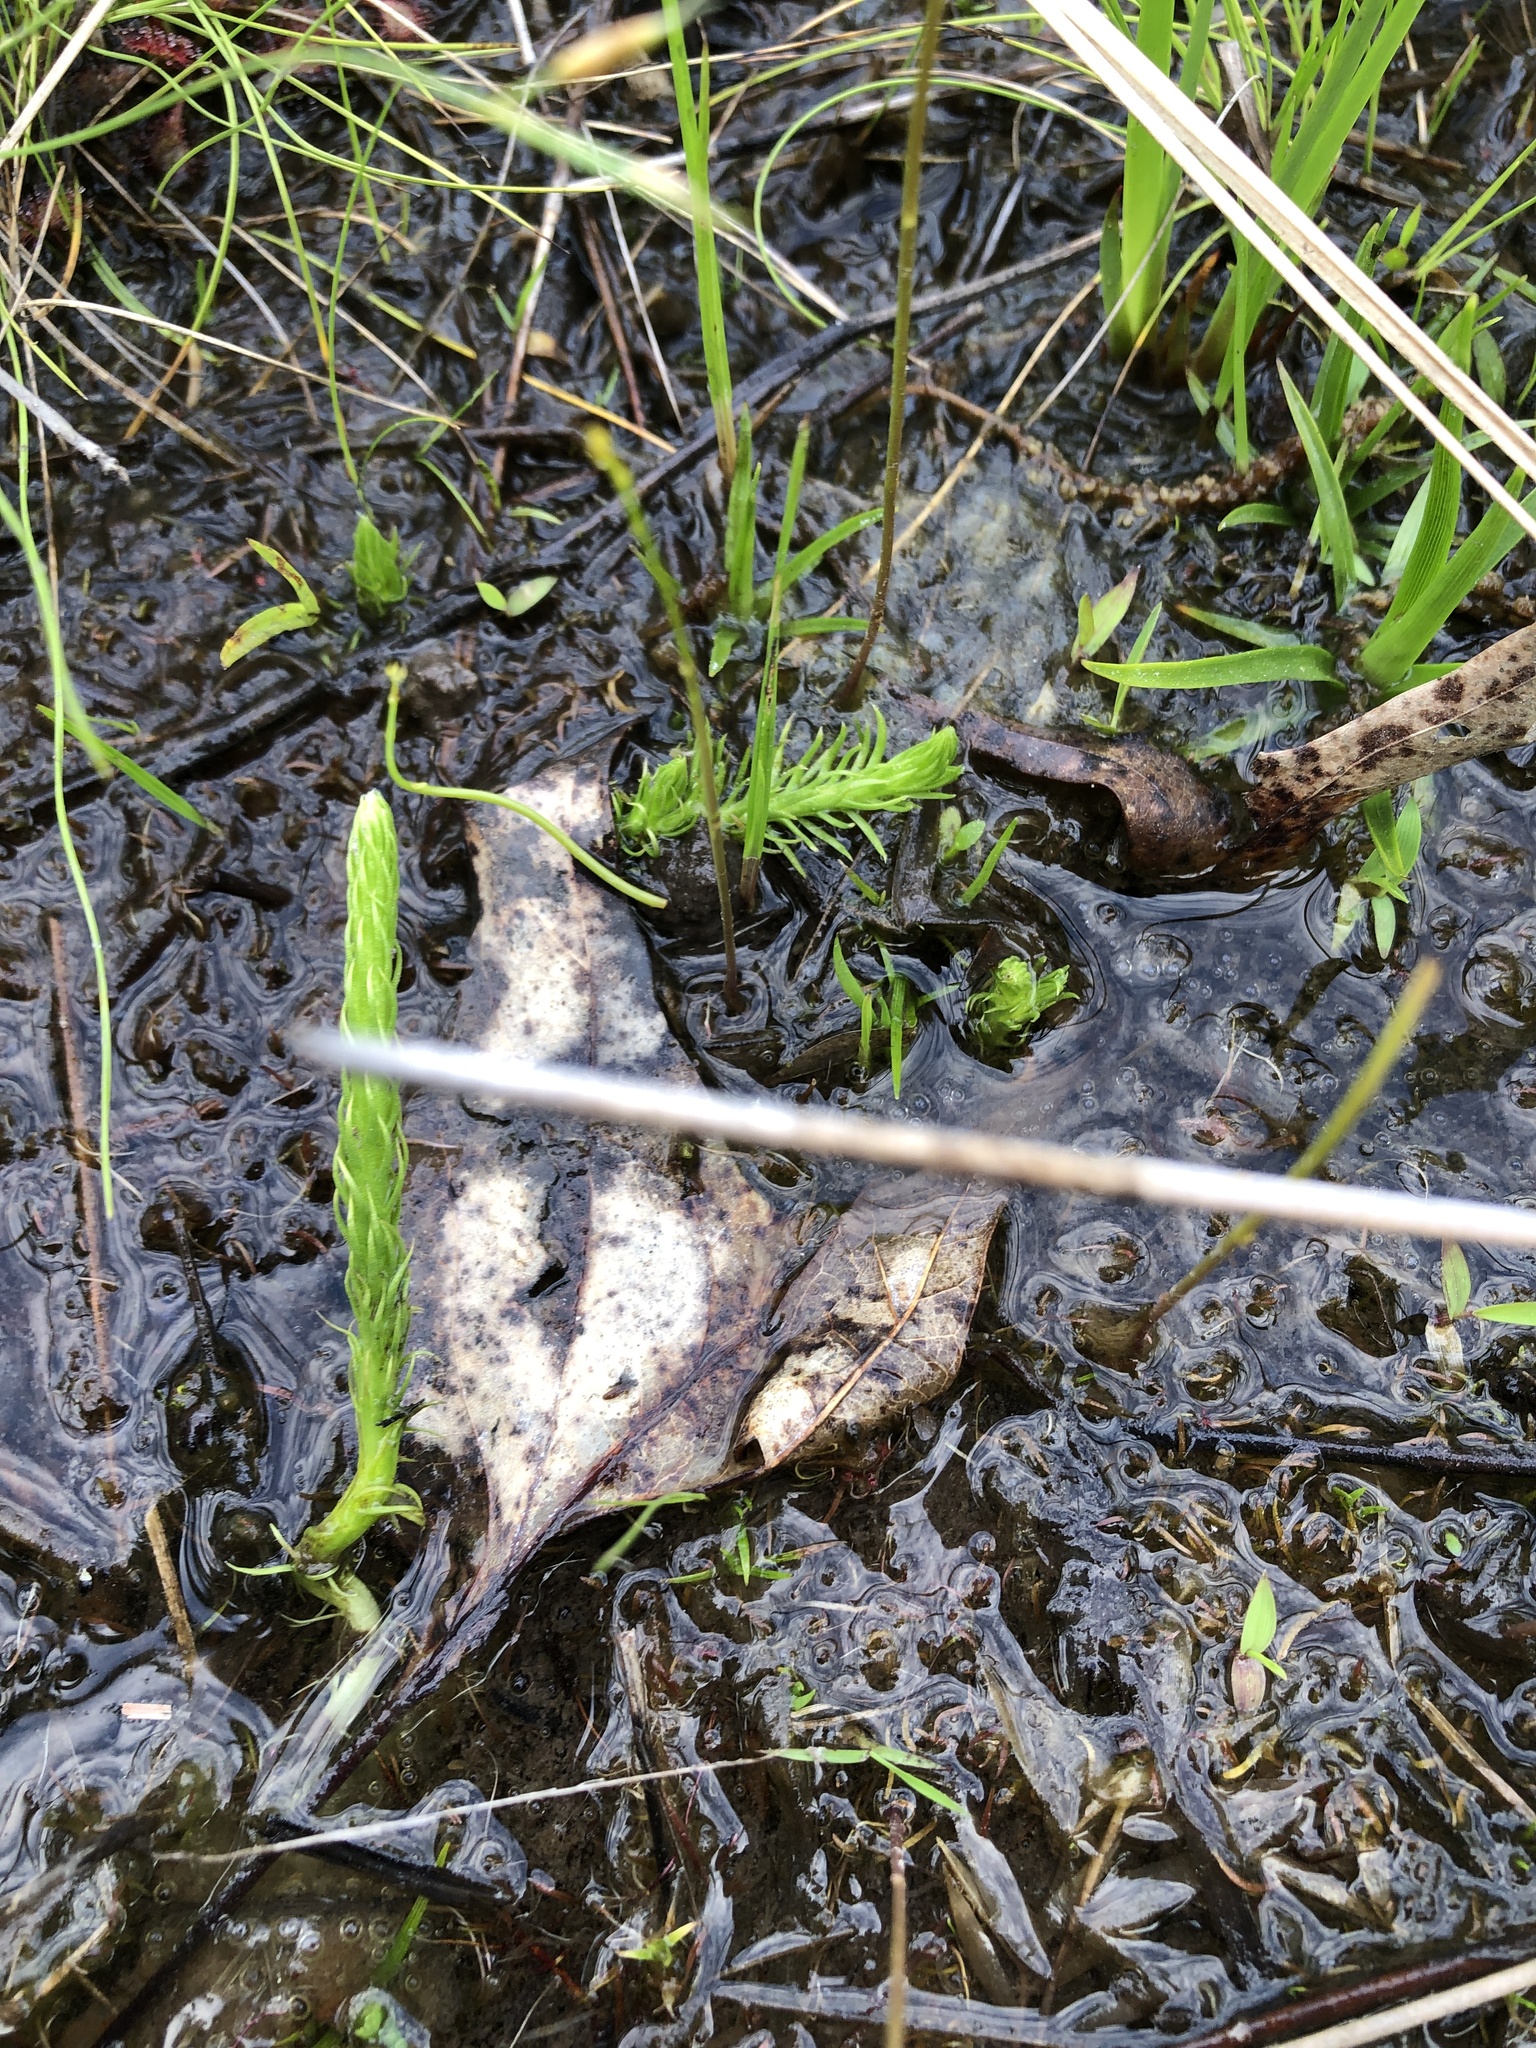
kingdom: Plantae
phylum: Tracheophyta
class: Lycopodiopsida
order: Lycopodiales
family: Lycopodiaceae
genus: Lycopodiella
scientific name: Lycopodiella appressa
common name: Appressed bog clubmoss
